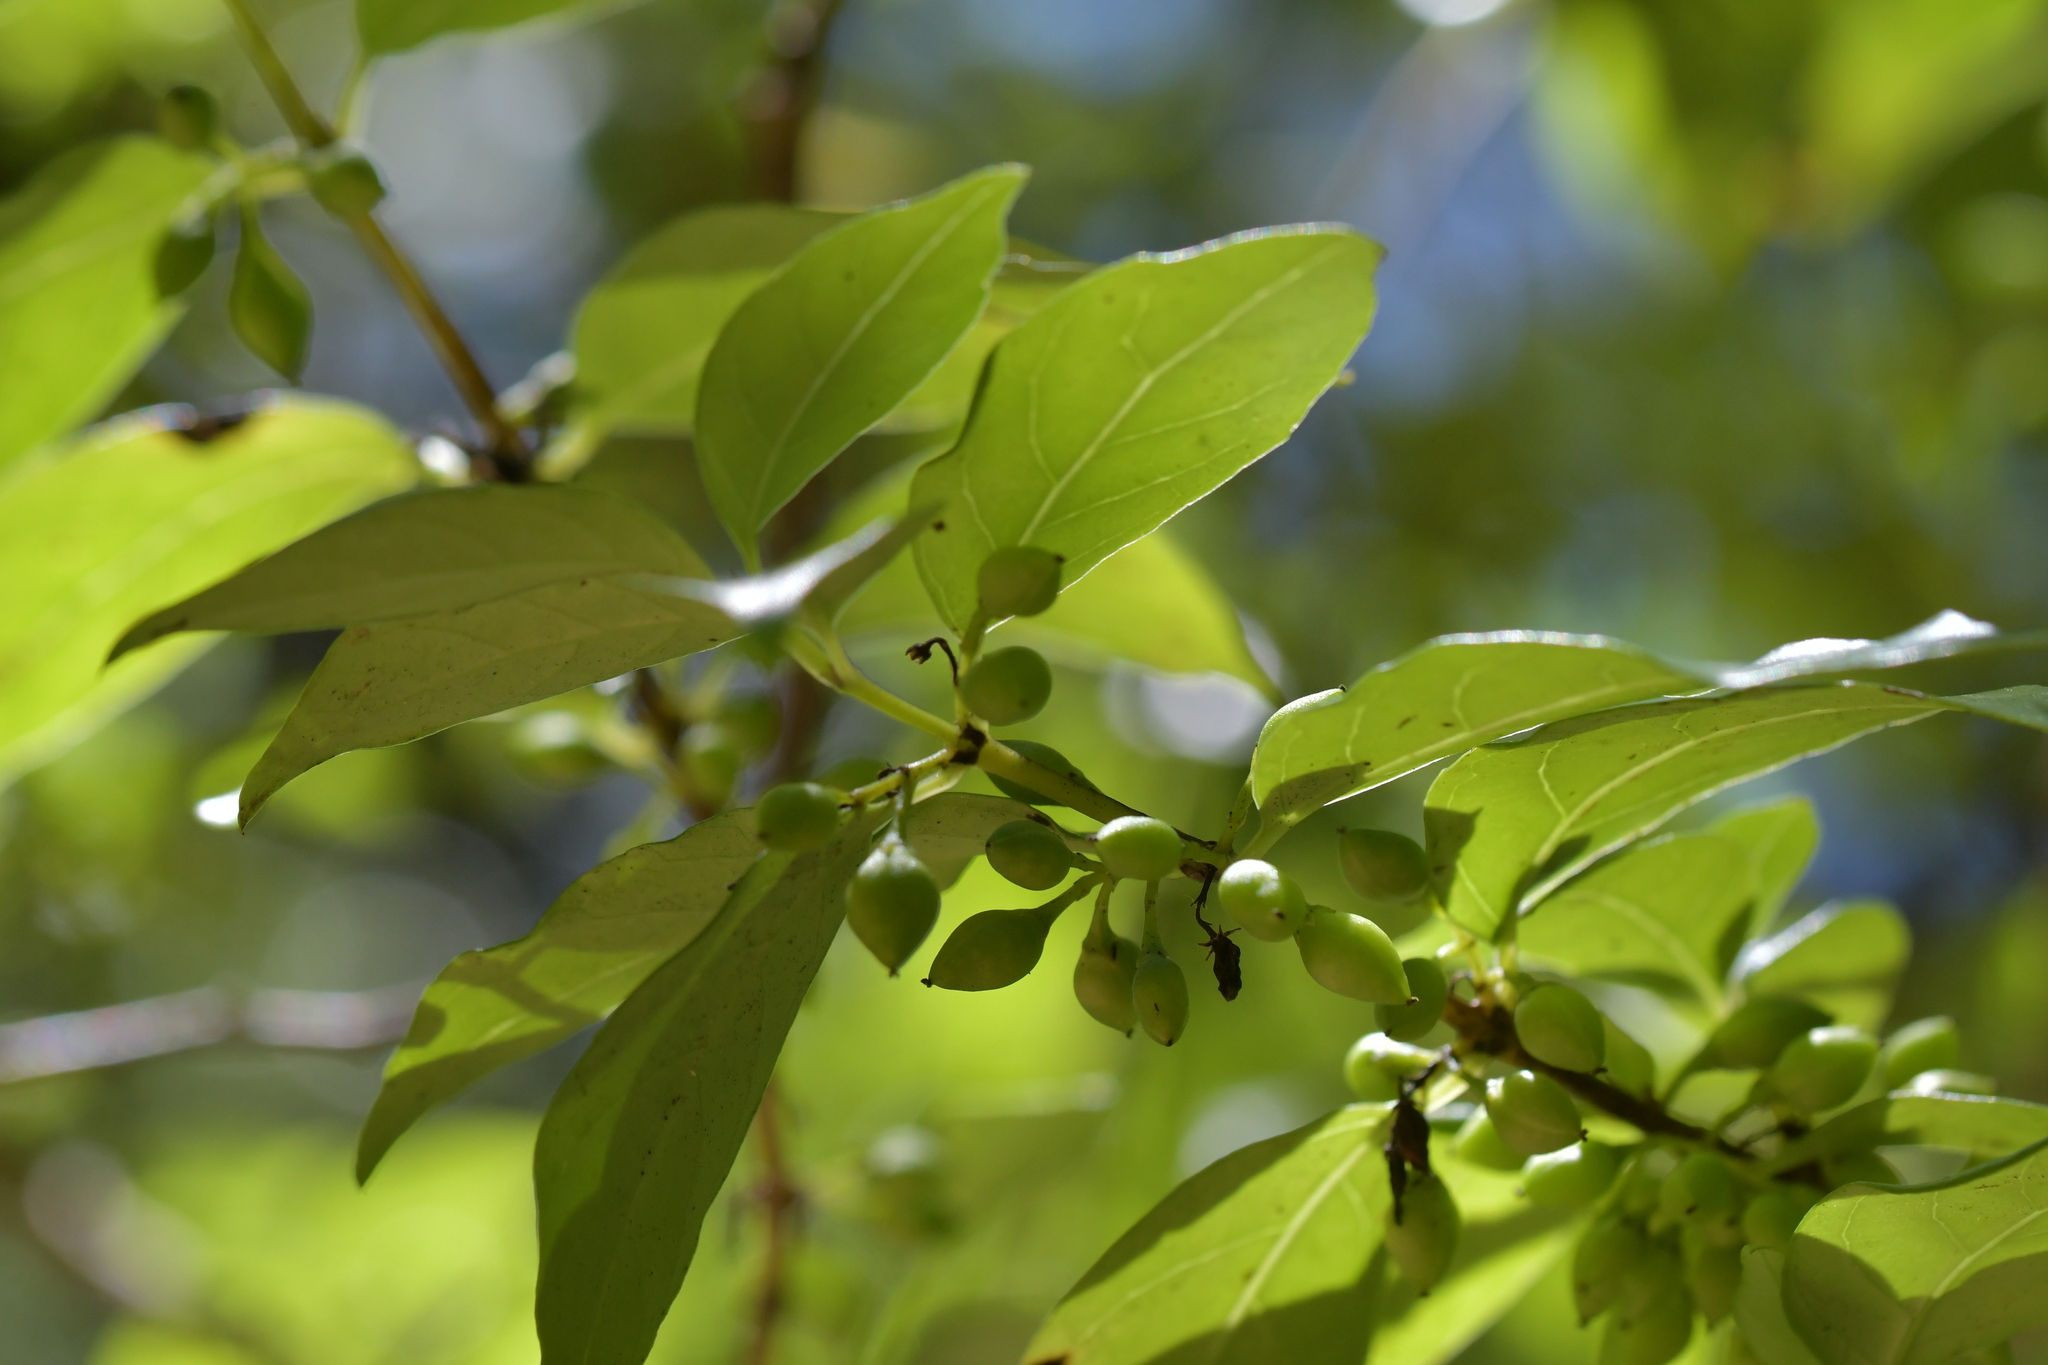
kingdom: Plantae
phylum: Tracheophyta
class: Magnoliopsida
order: Gentianales
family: Loganiaceae
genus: Geniostoma
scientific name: Geniostoma ligustrifolium
